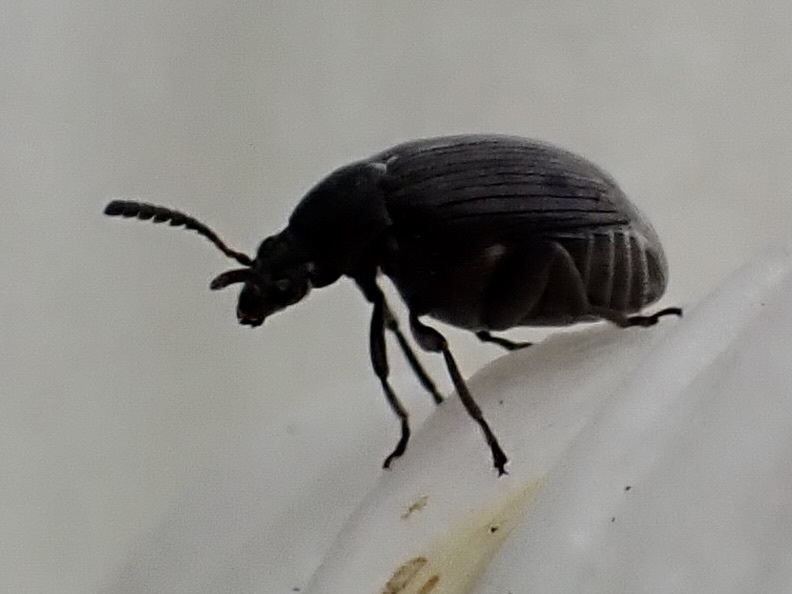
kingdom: Animalia
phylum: Arthropoda
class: Insecta
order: Coleoptera
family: Chrysomelidae
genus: Bruchidius
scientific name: Bruchidius villosus
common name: Scotch broom bruchid
